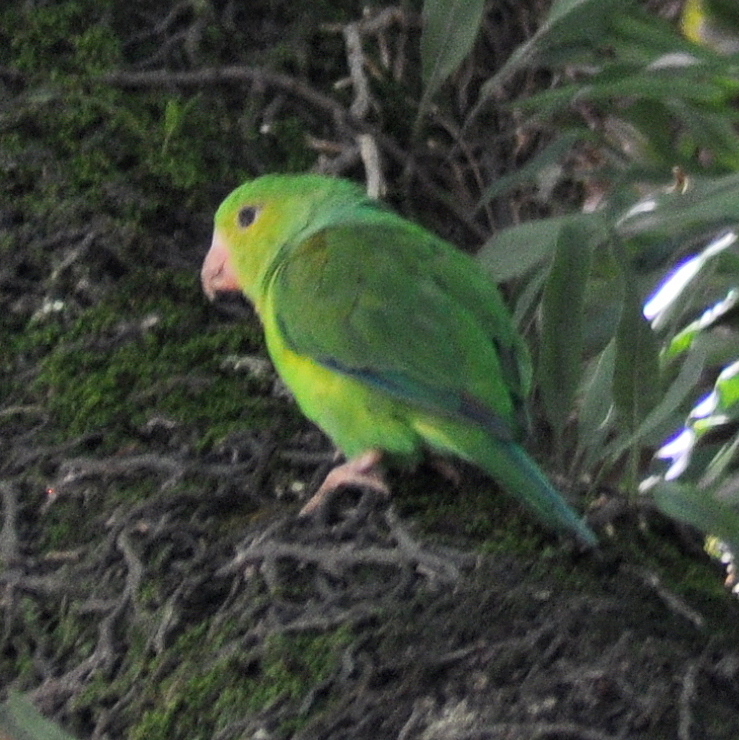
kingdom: Animalia
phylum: Chordata
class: Aves
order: Psittaciformes
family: Psittacidae
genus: Brotogeris
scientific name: Brotogeris tirica
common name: Plain parakeet
